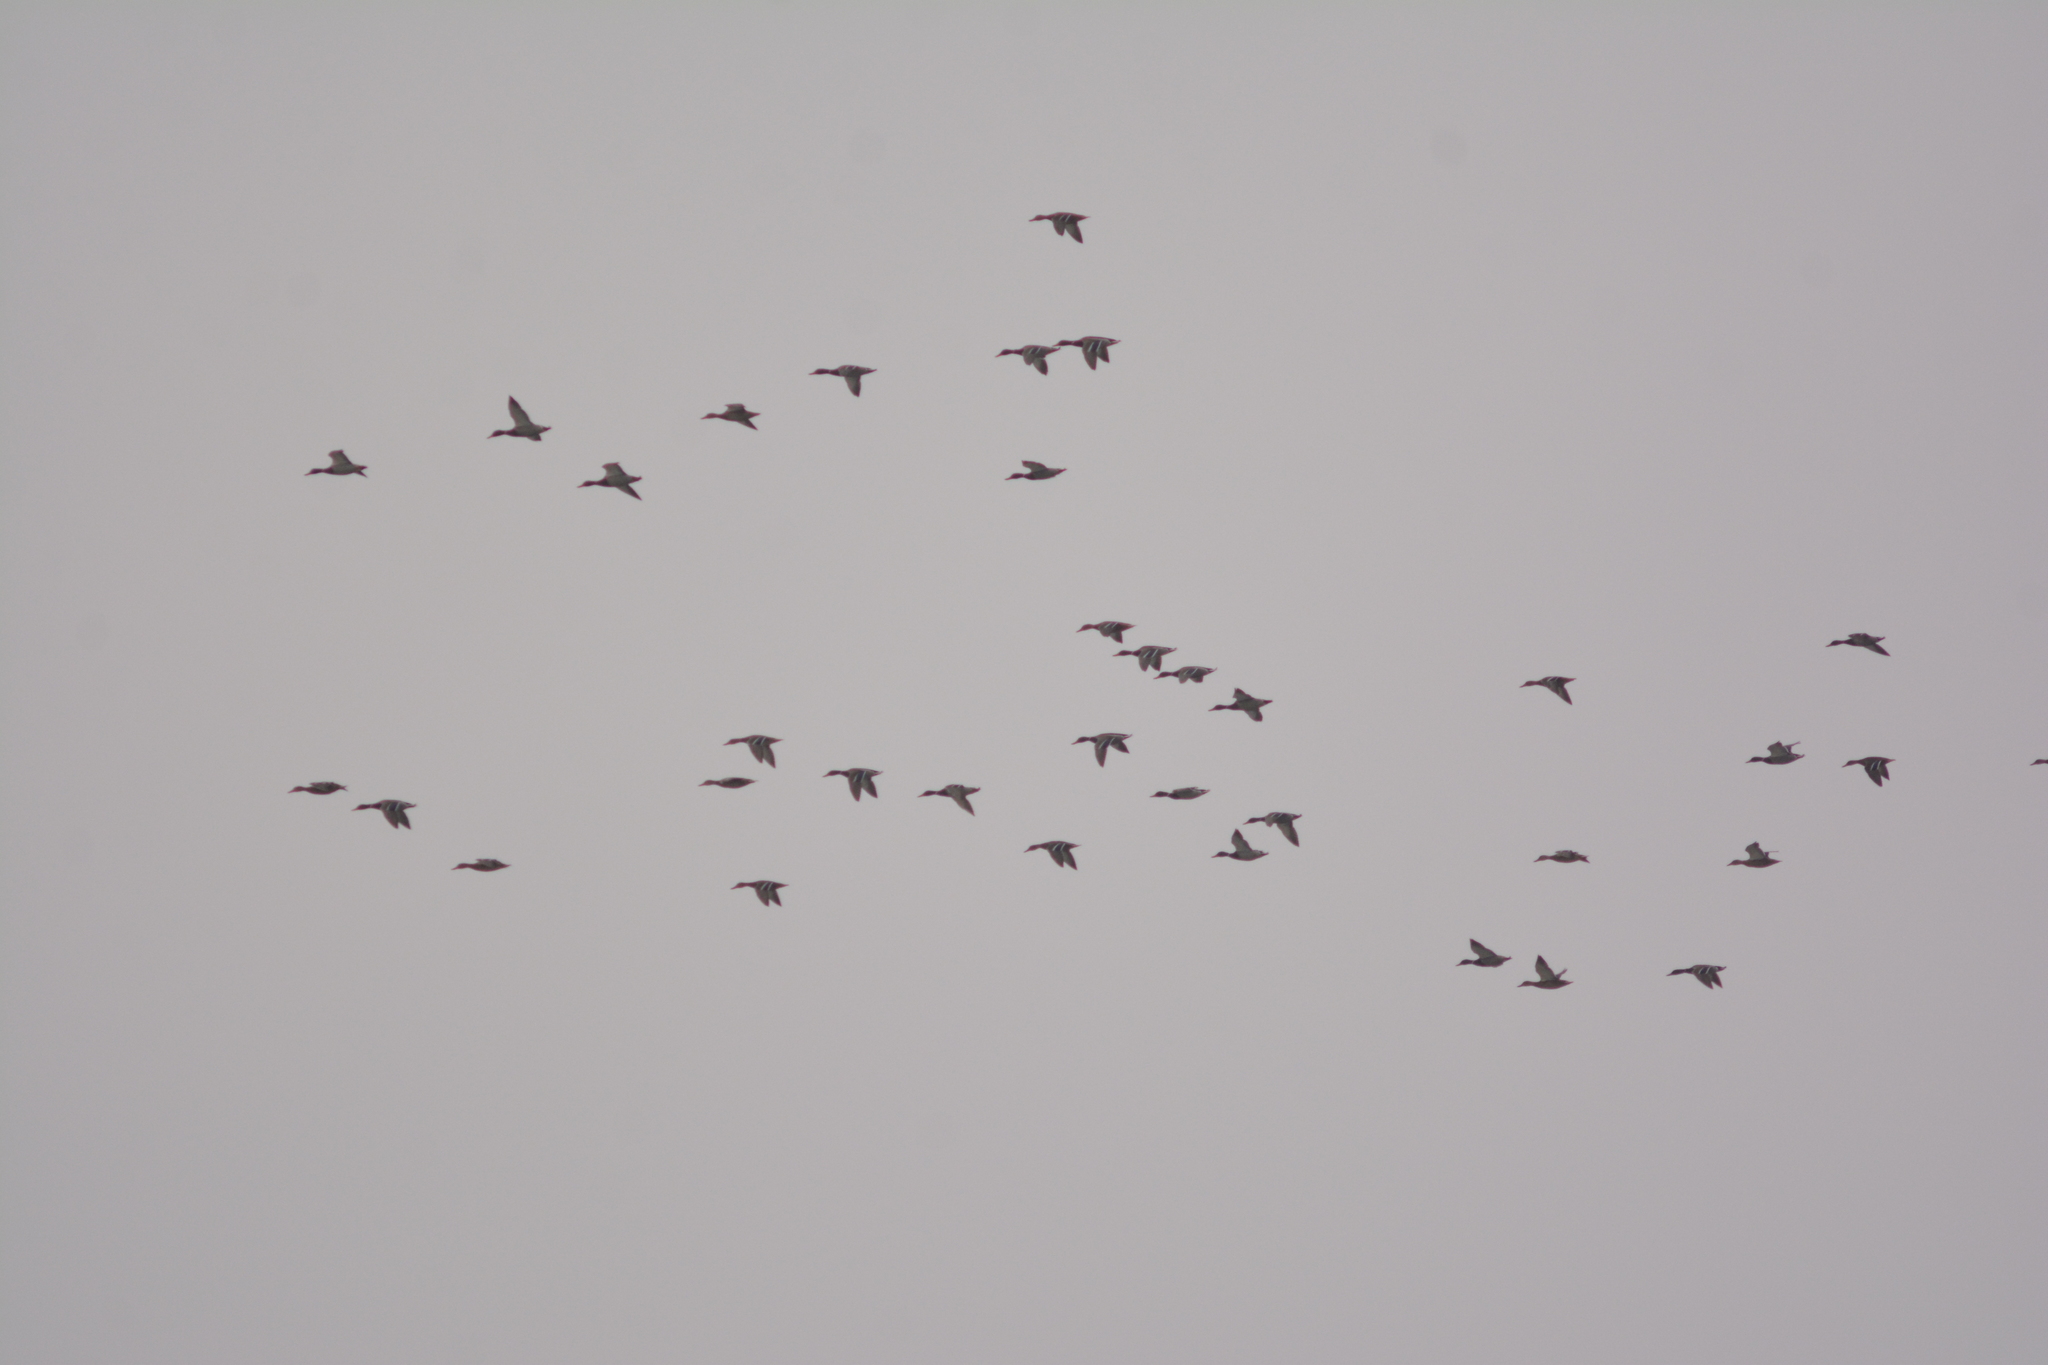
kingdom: Animalia
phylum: Chordata
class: Aves
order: Anseriformes
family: Anatidae
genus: Anas
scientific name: Anas platyrhynchos
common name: Mallard
